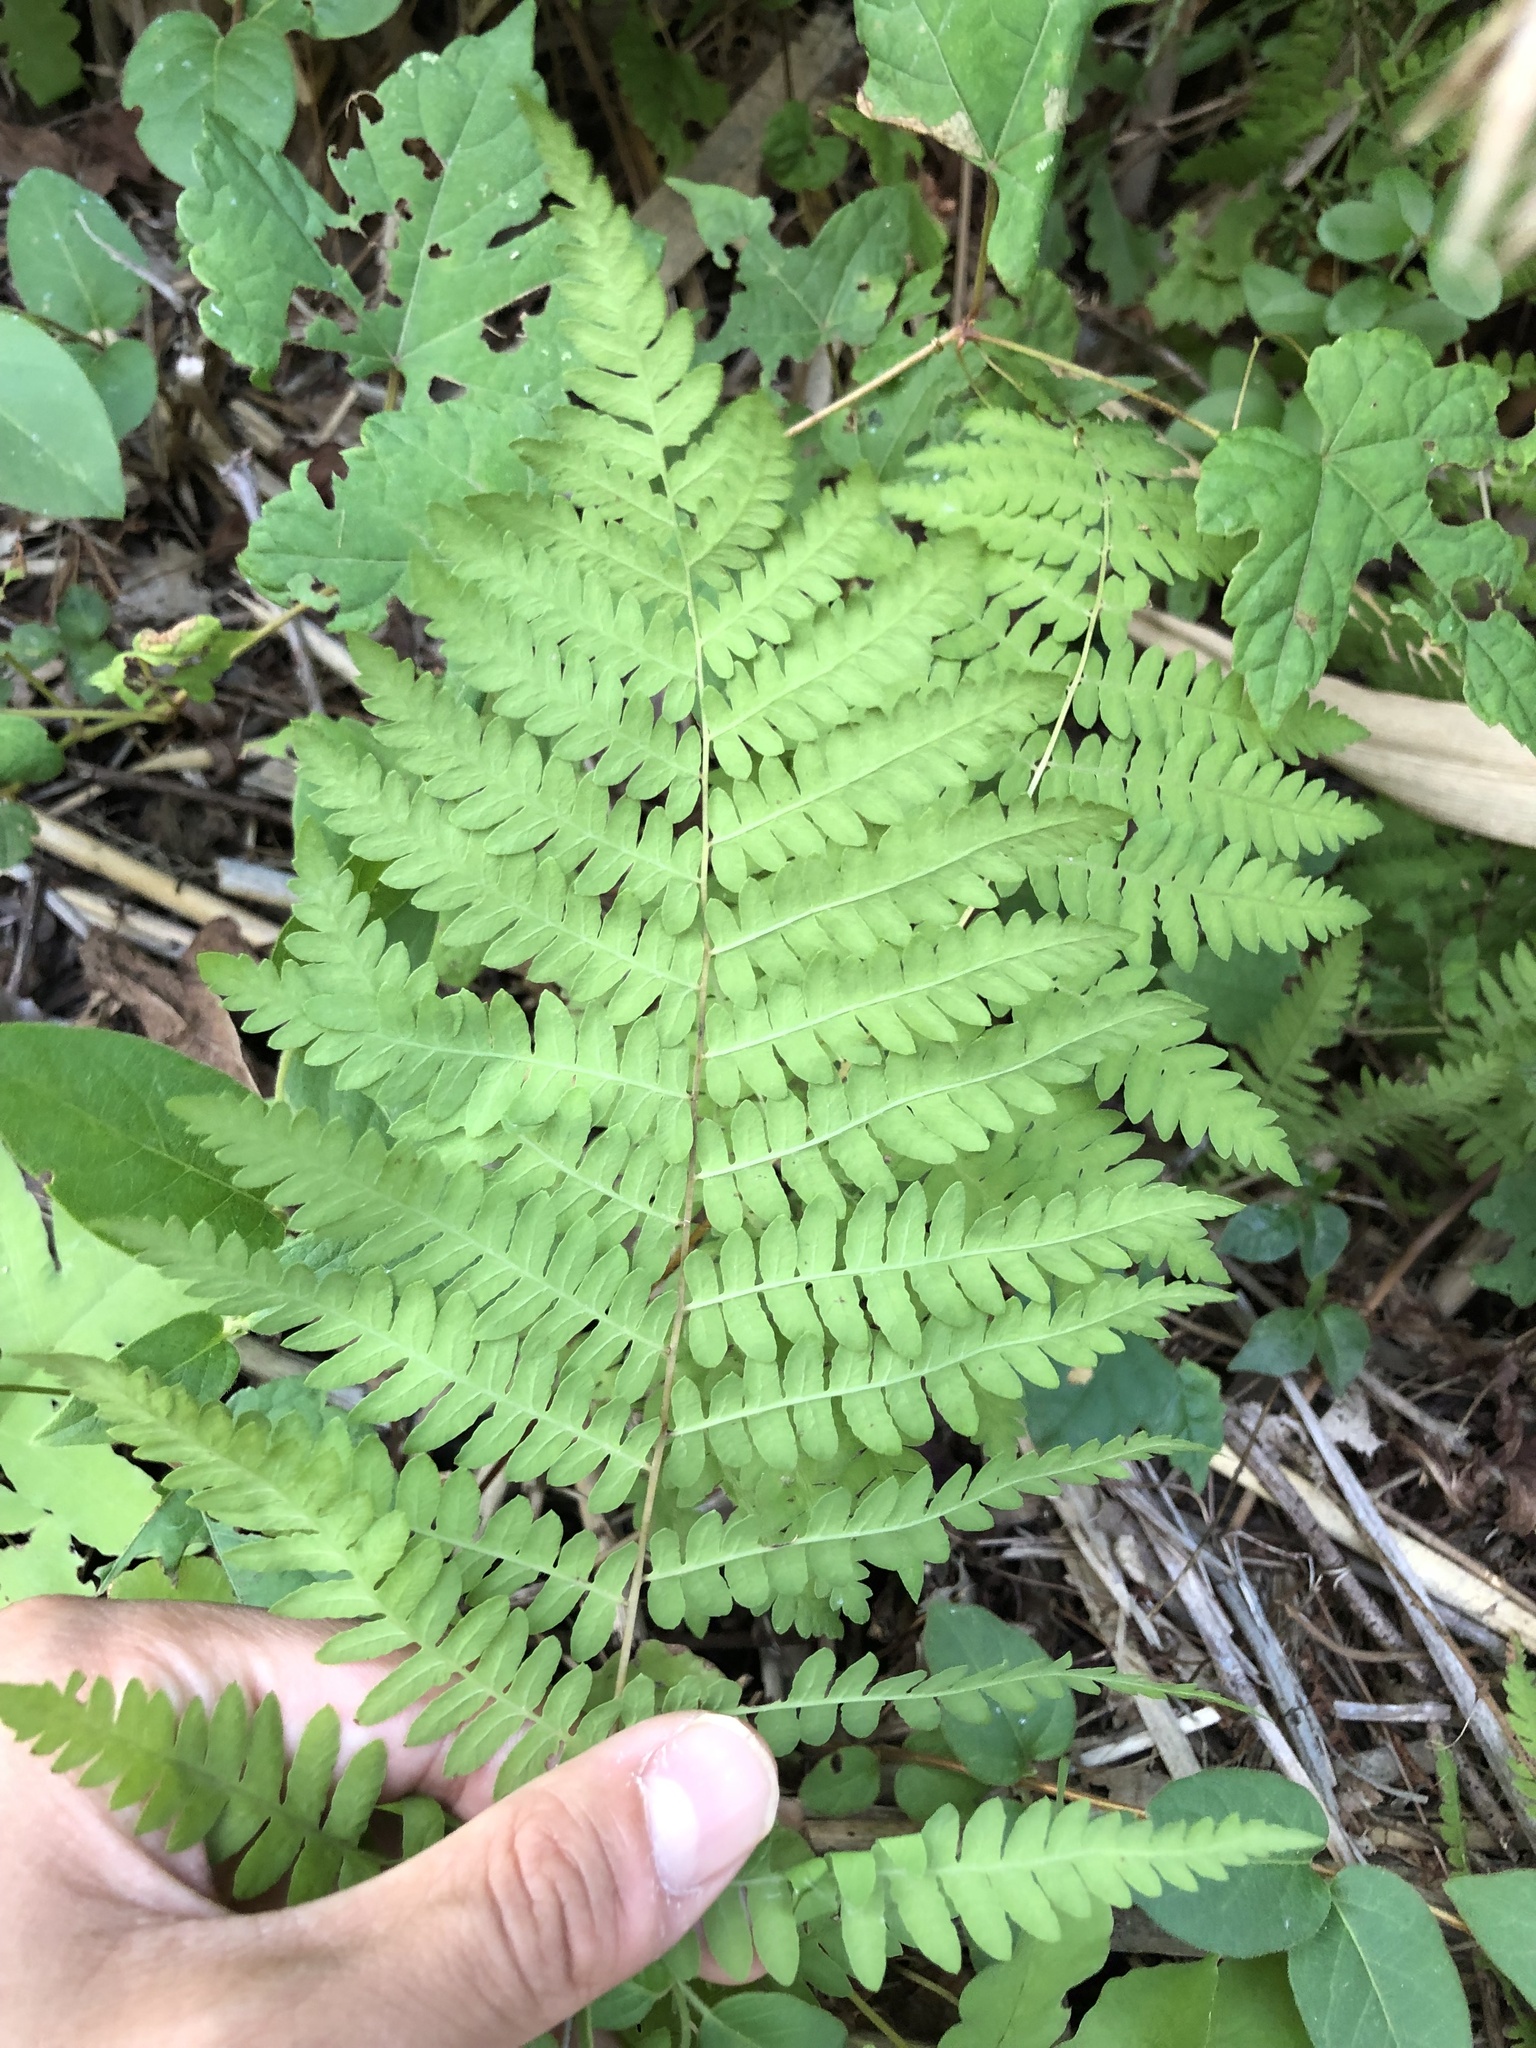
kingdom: Plantae
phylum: Tracheophyta
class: Polypodiopsida
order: Polypodiales
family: Thelypteridaceae
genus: Thelypteris
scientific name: Thelypteris palustris
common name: Marsh fern
